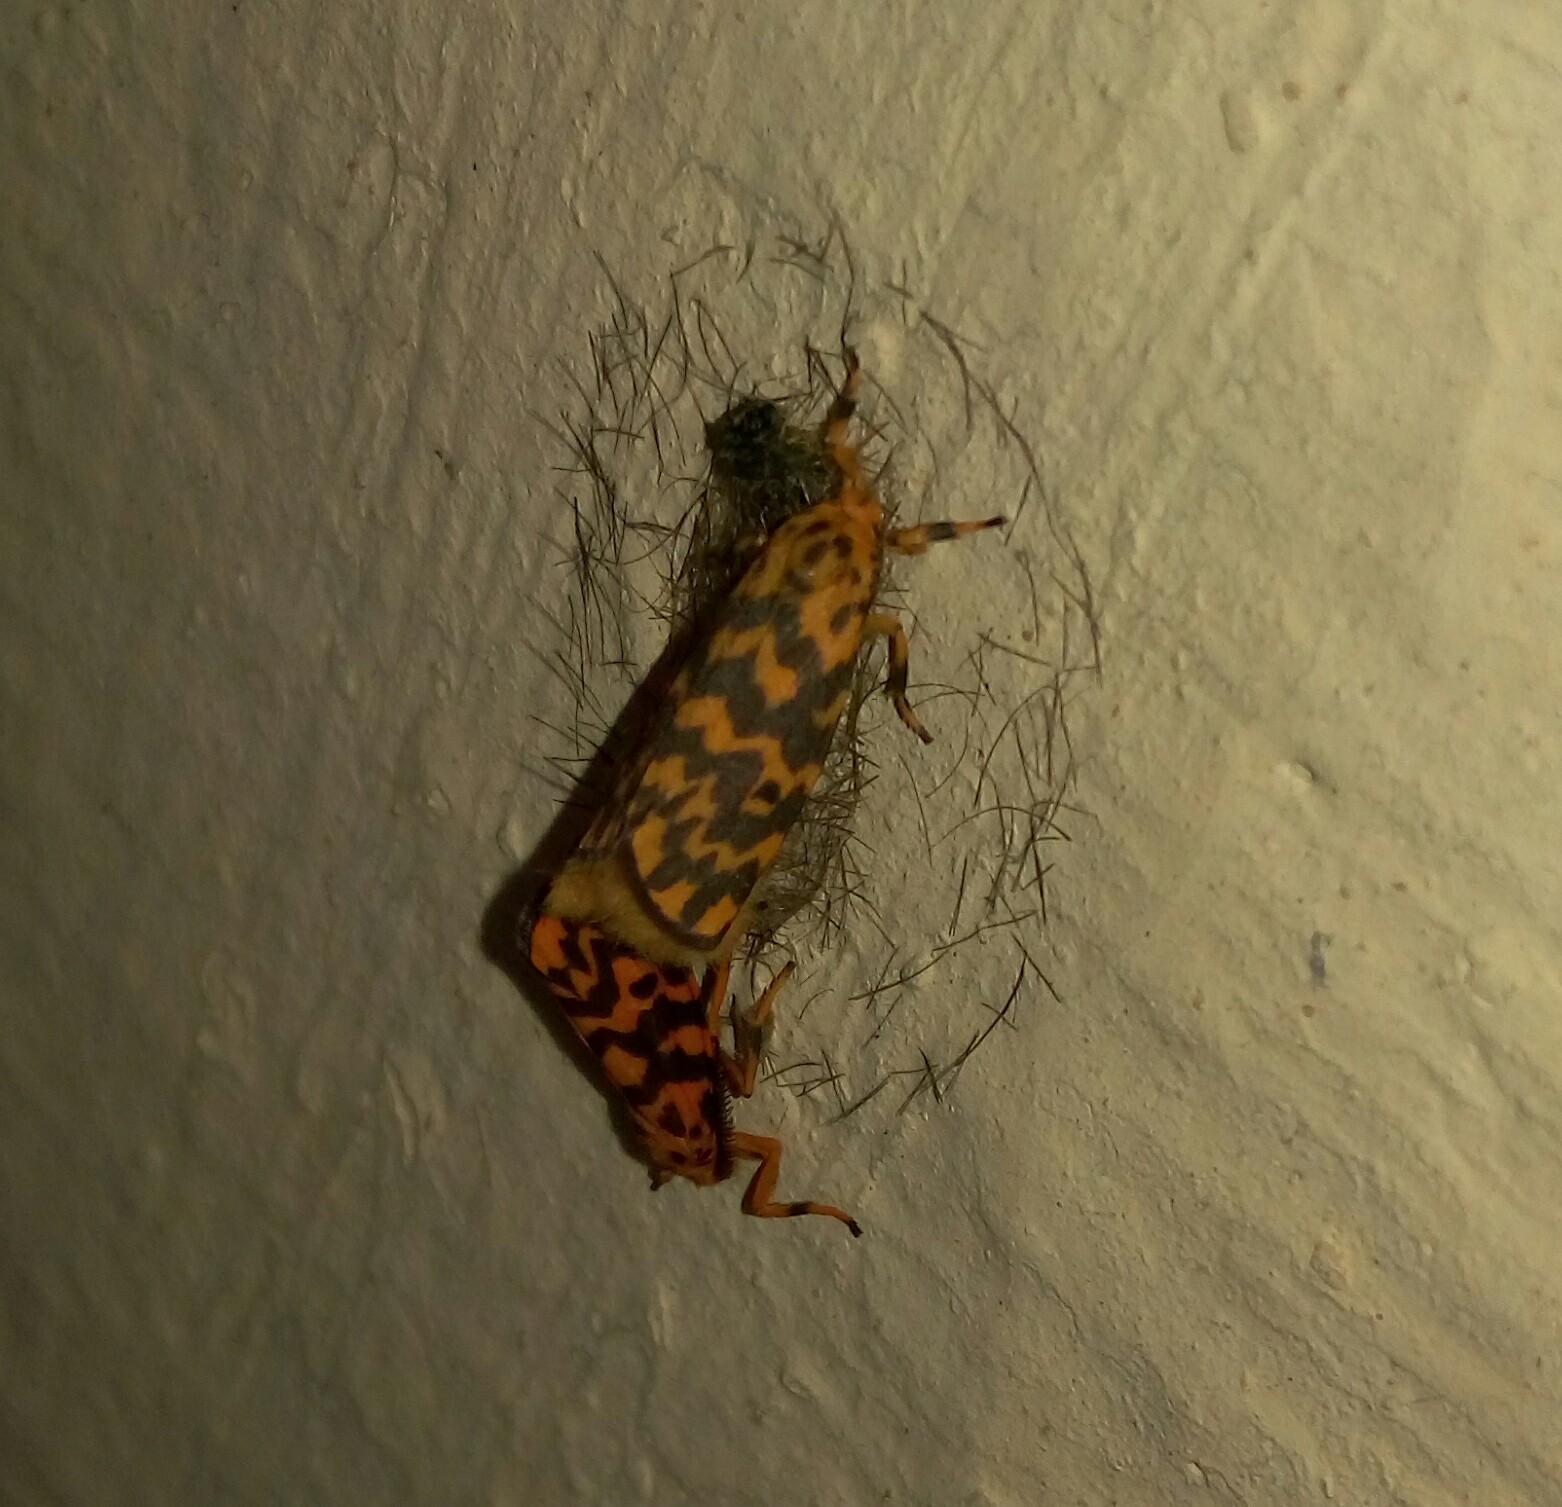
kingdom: Animalia
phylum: Arthropoda
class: Insecta
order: Lepidoptera
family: Erebidae
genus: Nepita
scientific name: Nepita conferta
